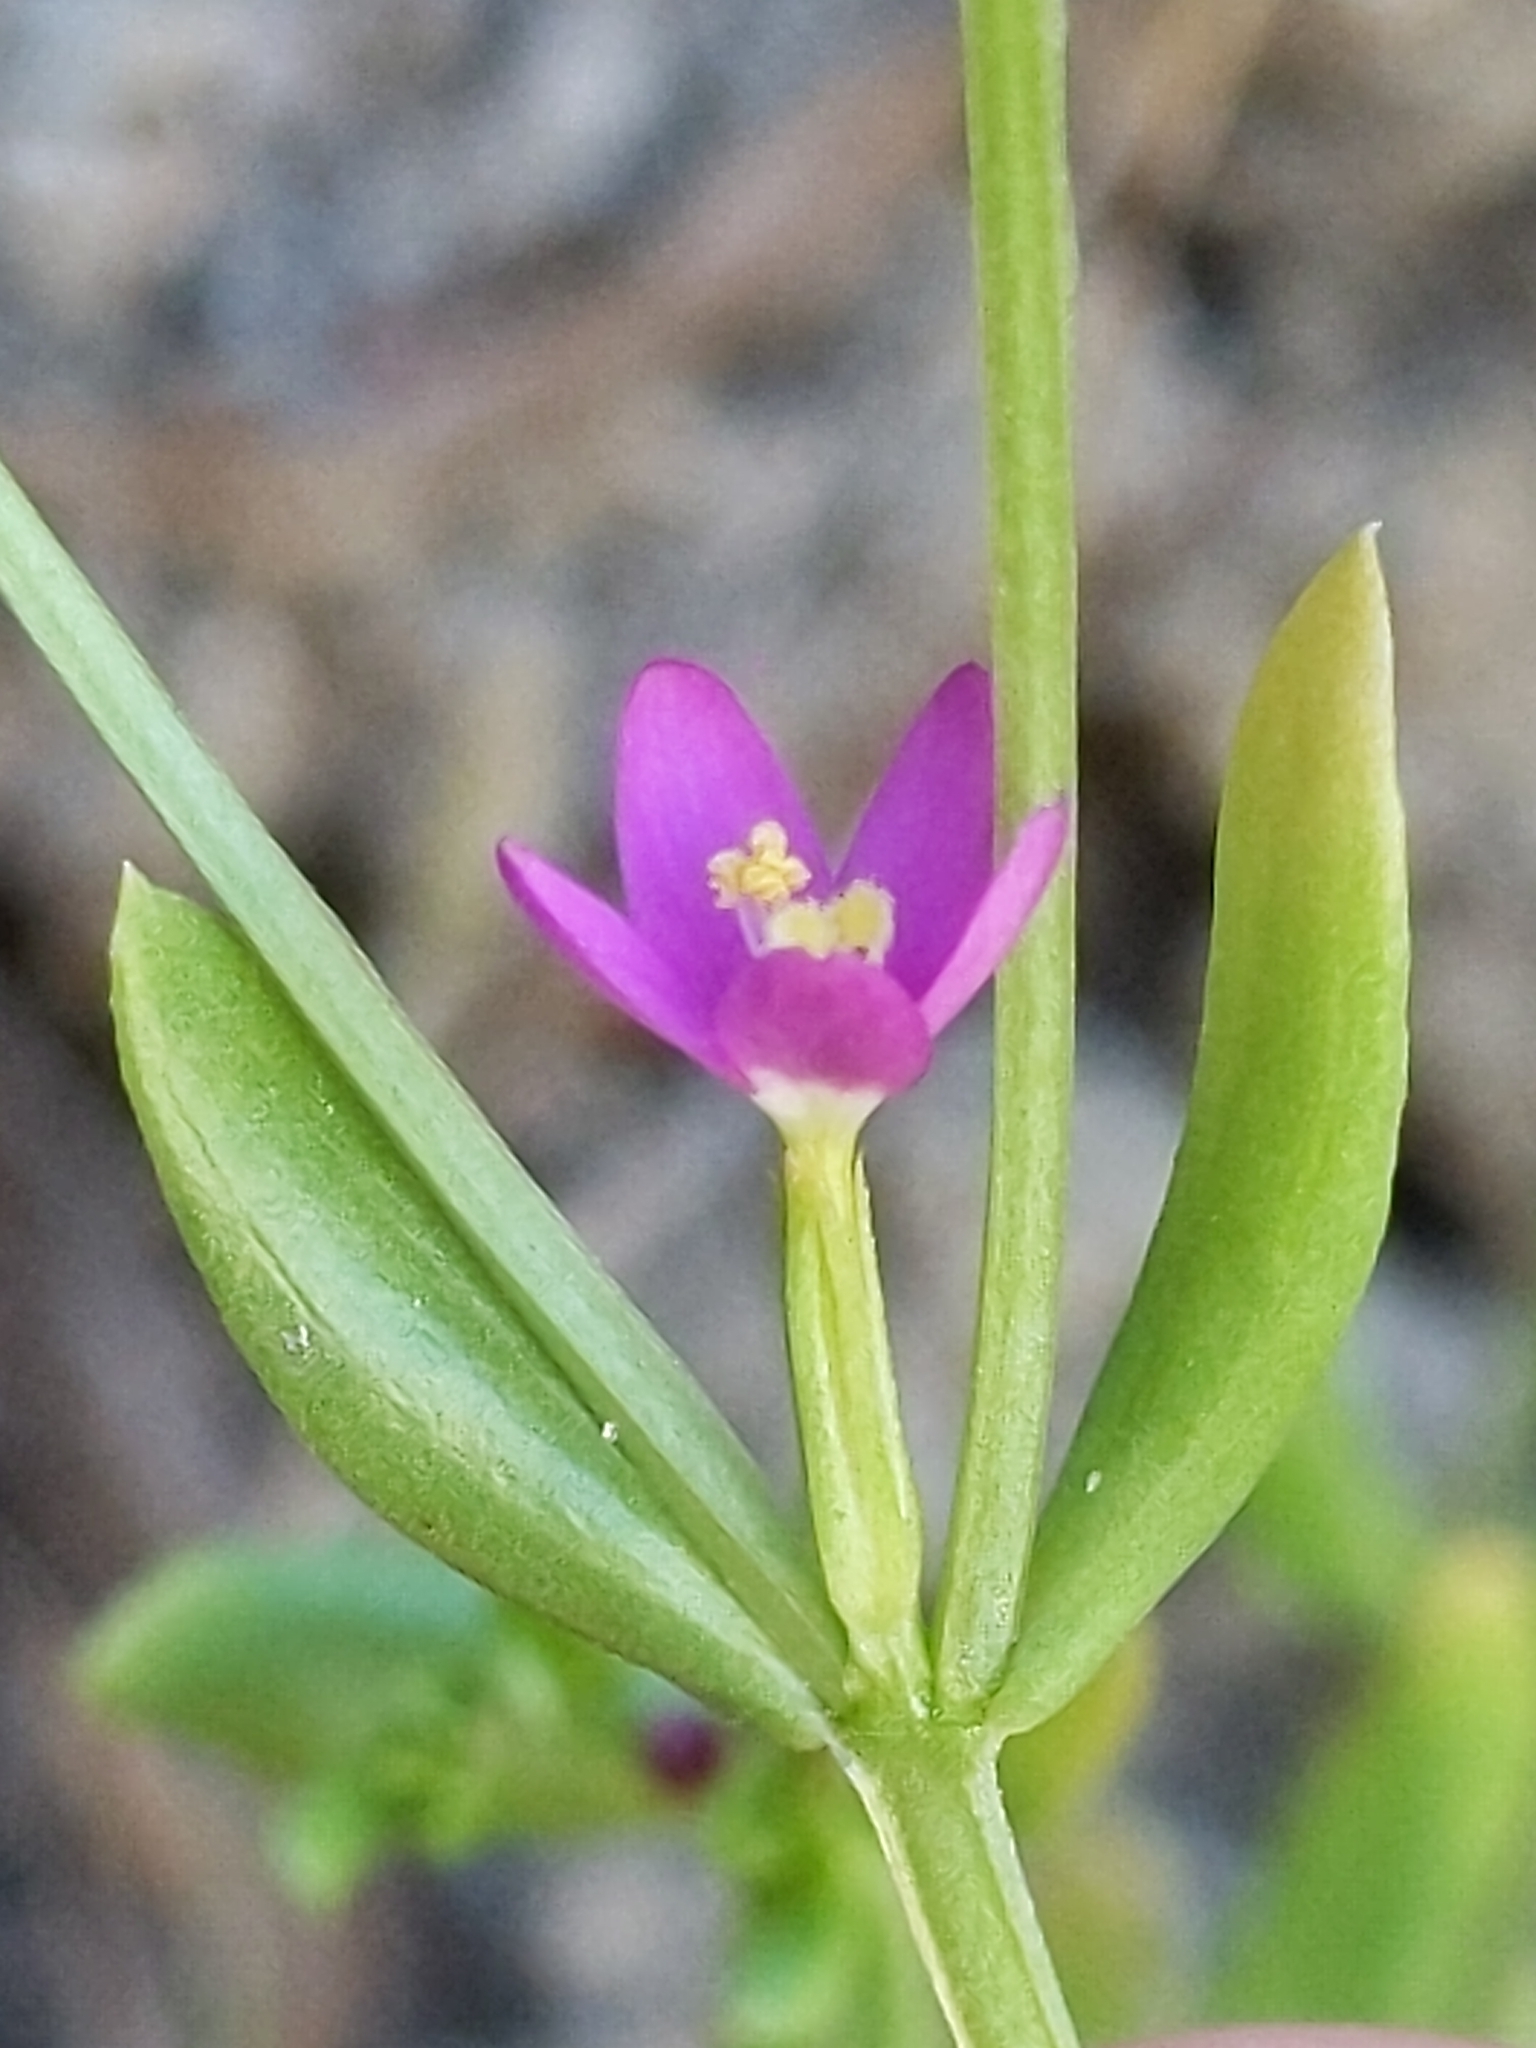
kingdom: Plantae
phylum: Tracheophyta
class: Magnoliopsida
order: Gentianales
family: Gentianaceae
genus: Zeltnera
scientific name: Zeltnera muhlenbergii
